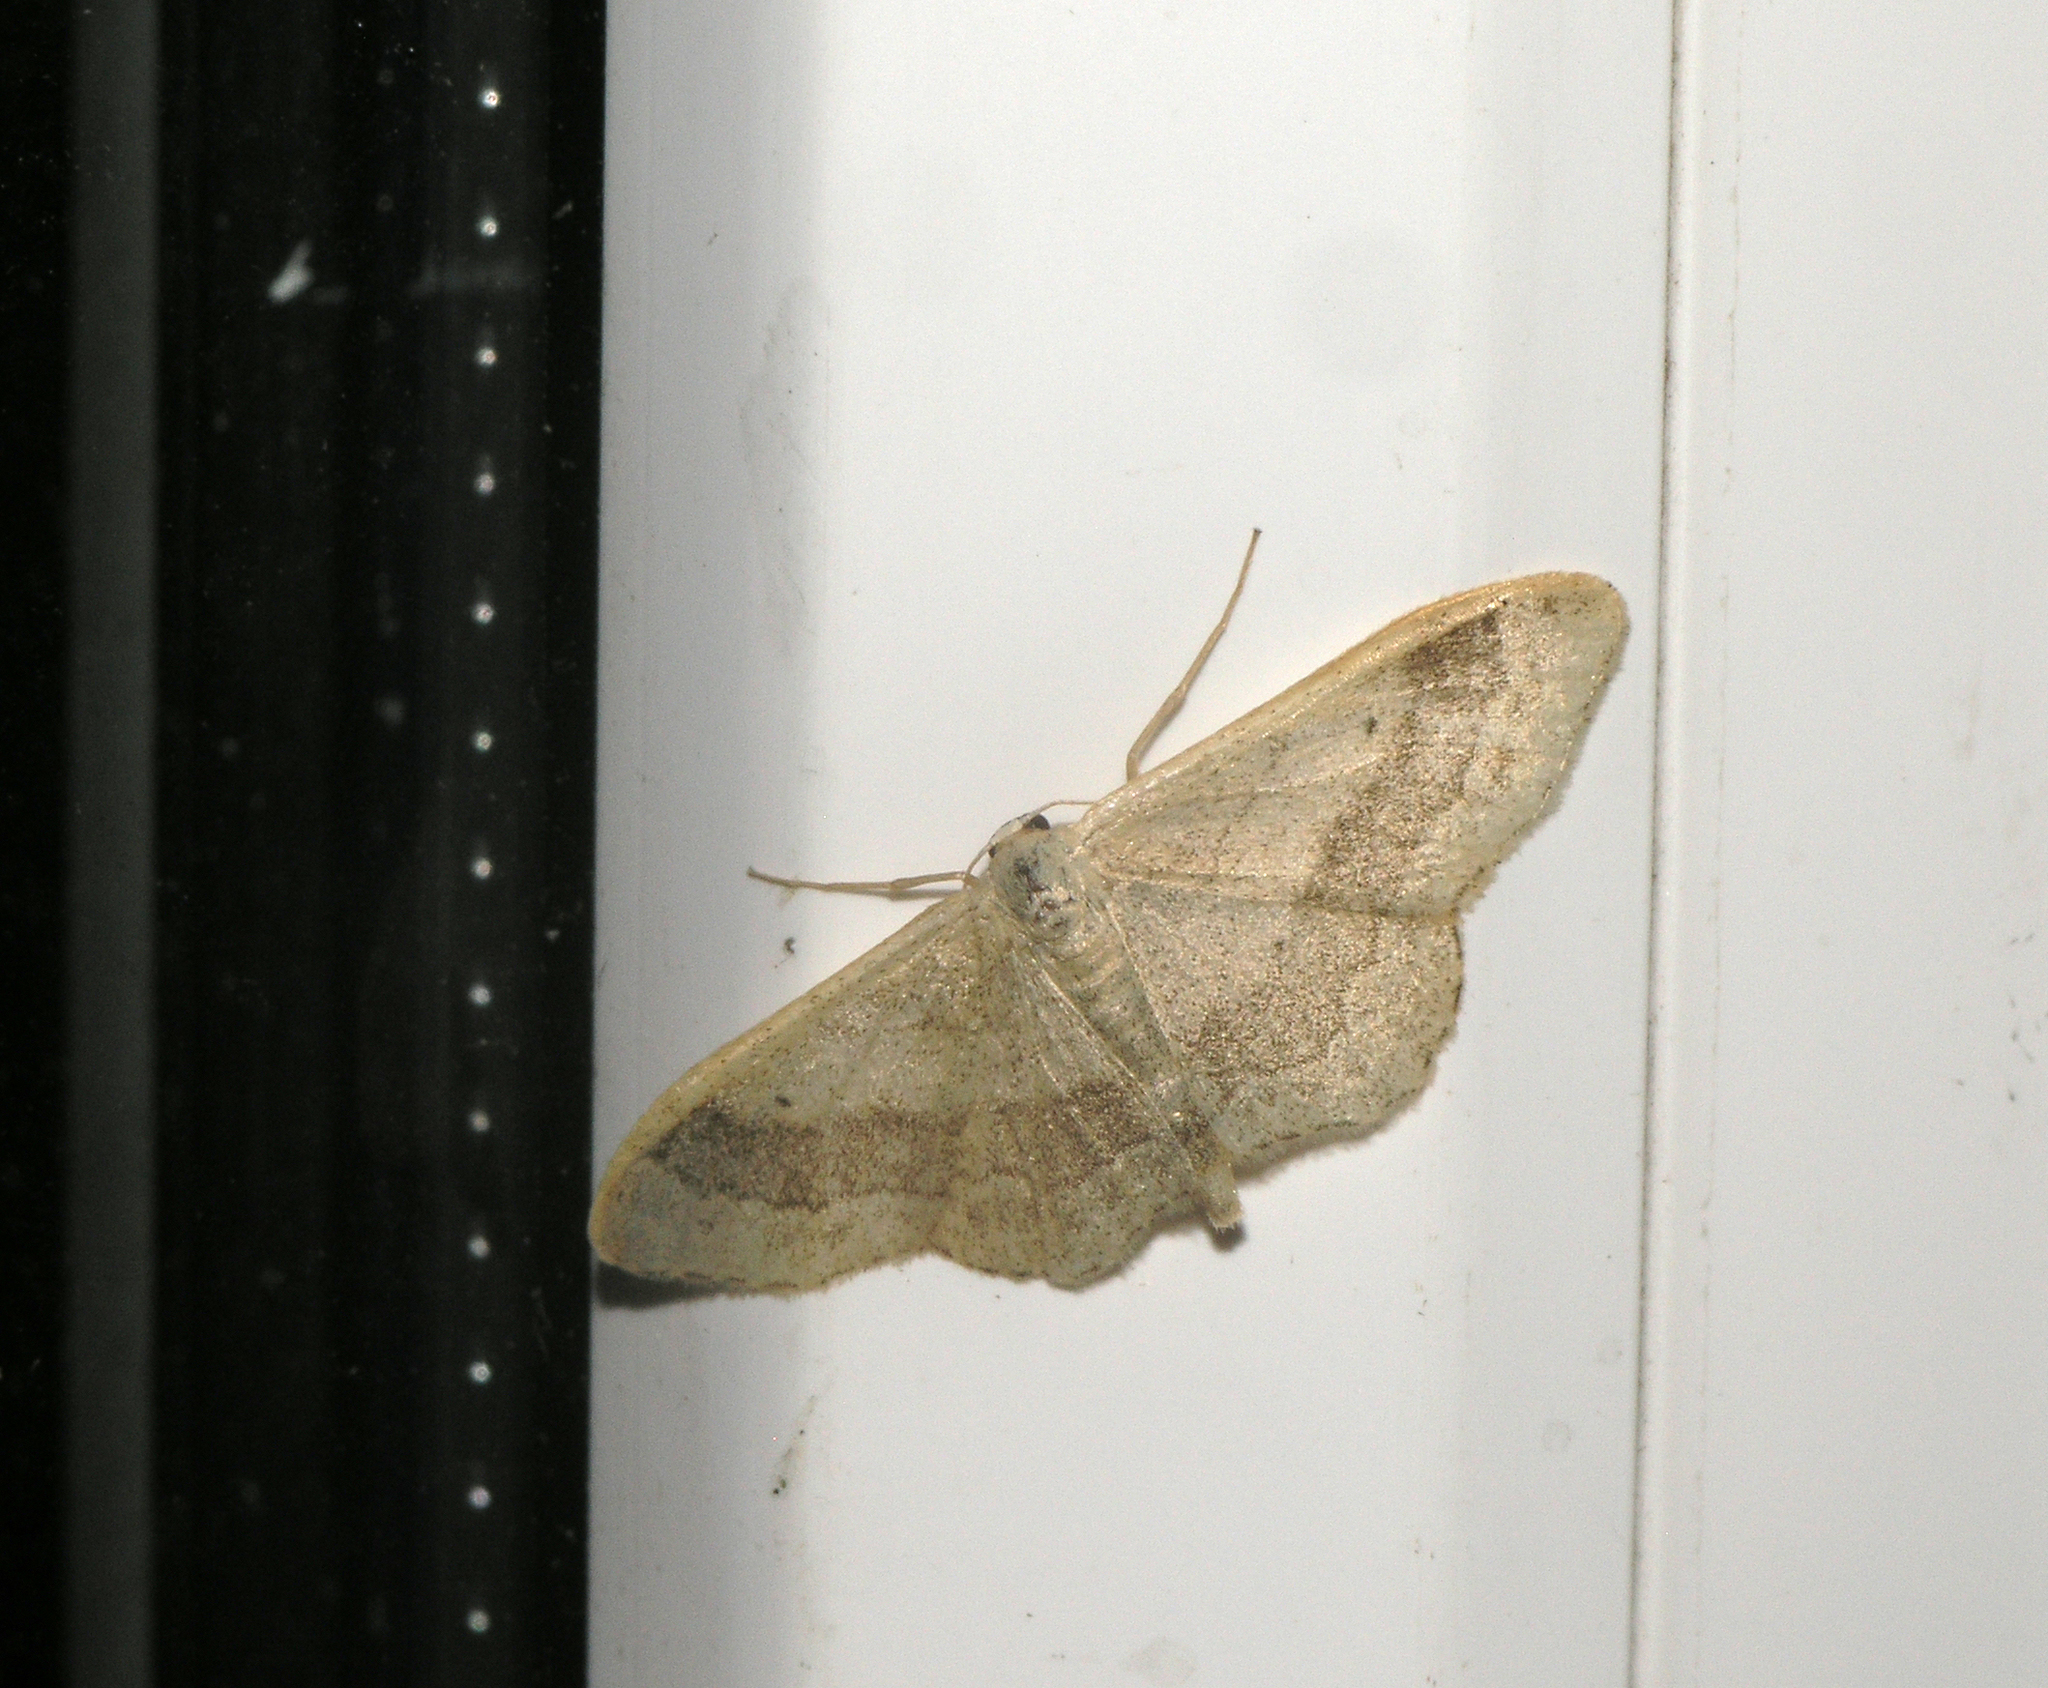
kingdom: Animalia
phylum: Arthropoda
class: Insecta
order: Lepidoptera
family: Geometridae
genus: Idaea
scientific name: Idaea aversata
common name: Riband wave
